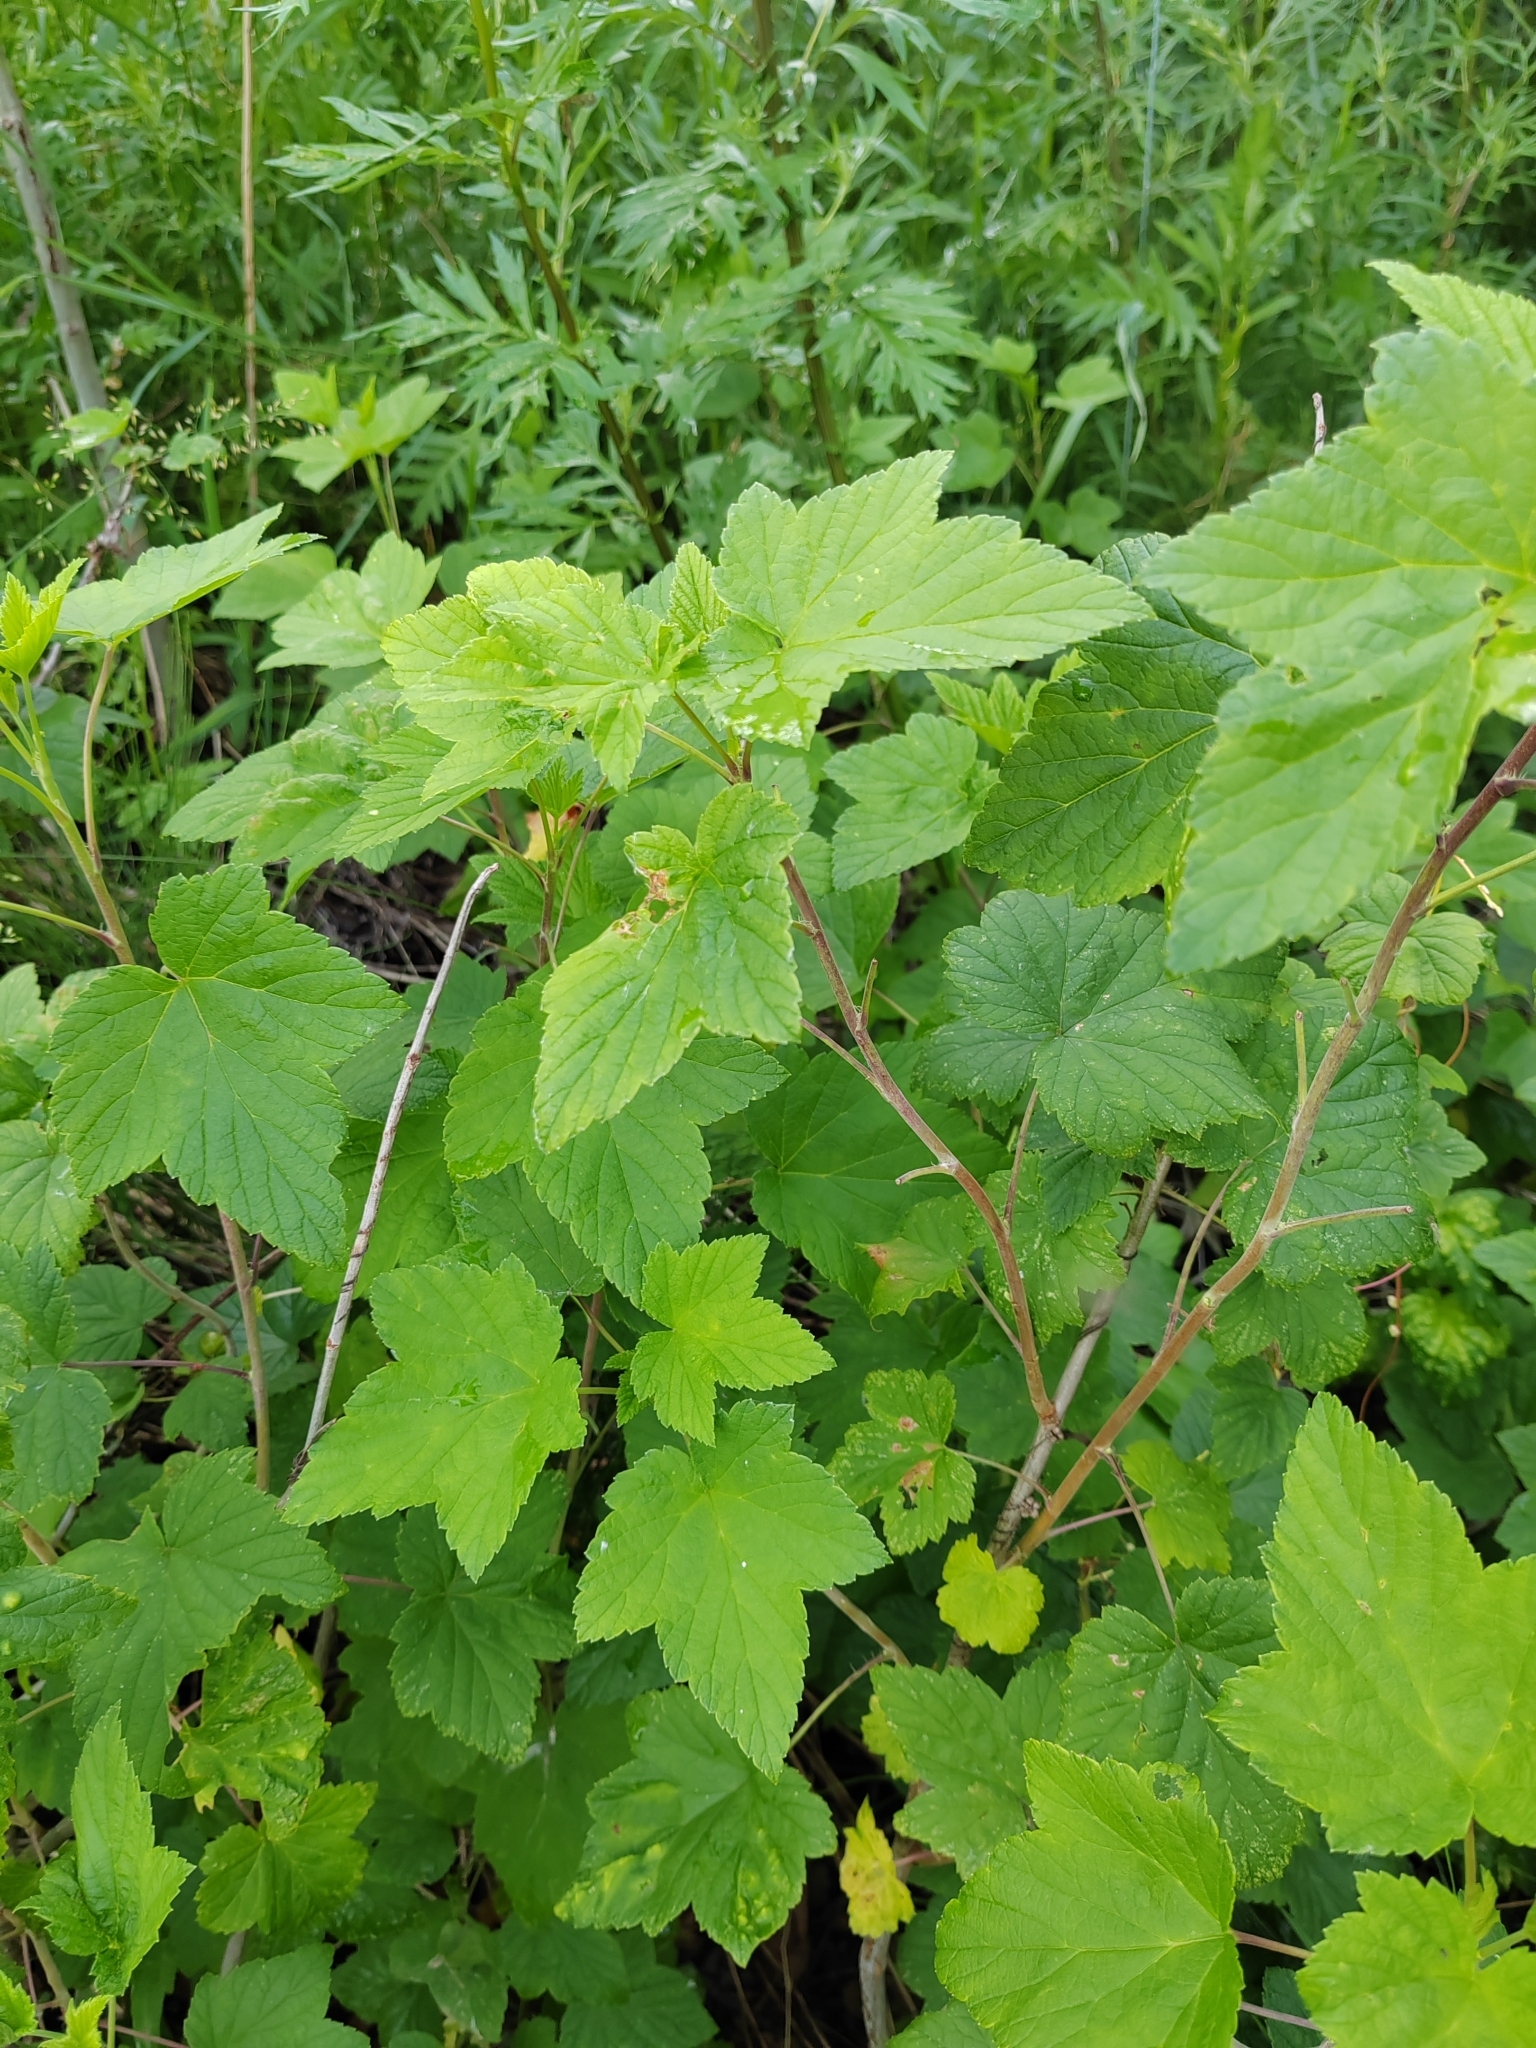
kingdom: Plantae
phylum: Tracheophyta
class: Magnoliopsida
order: Saxifragales
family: Grossulariaceae
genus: Ribes
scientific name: Ribes nigrum
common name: Black currant
